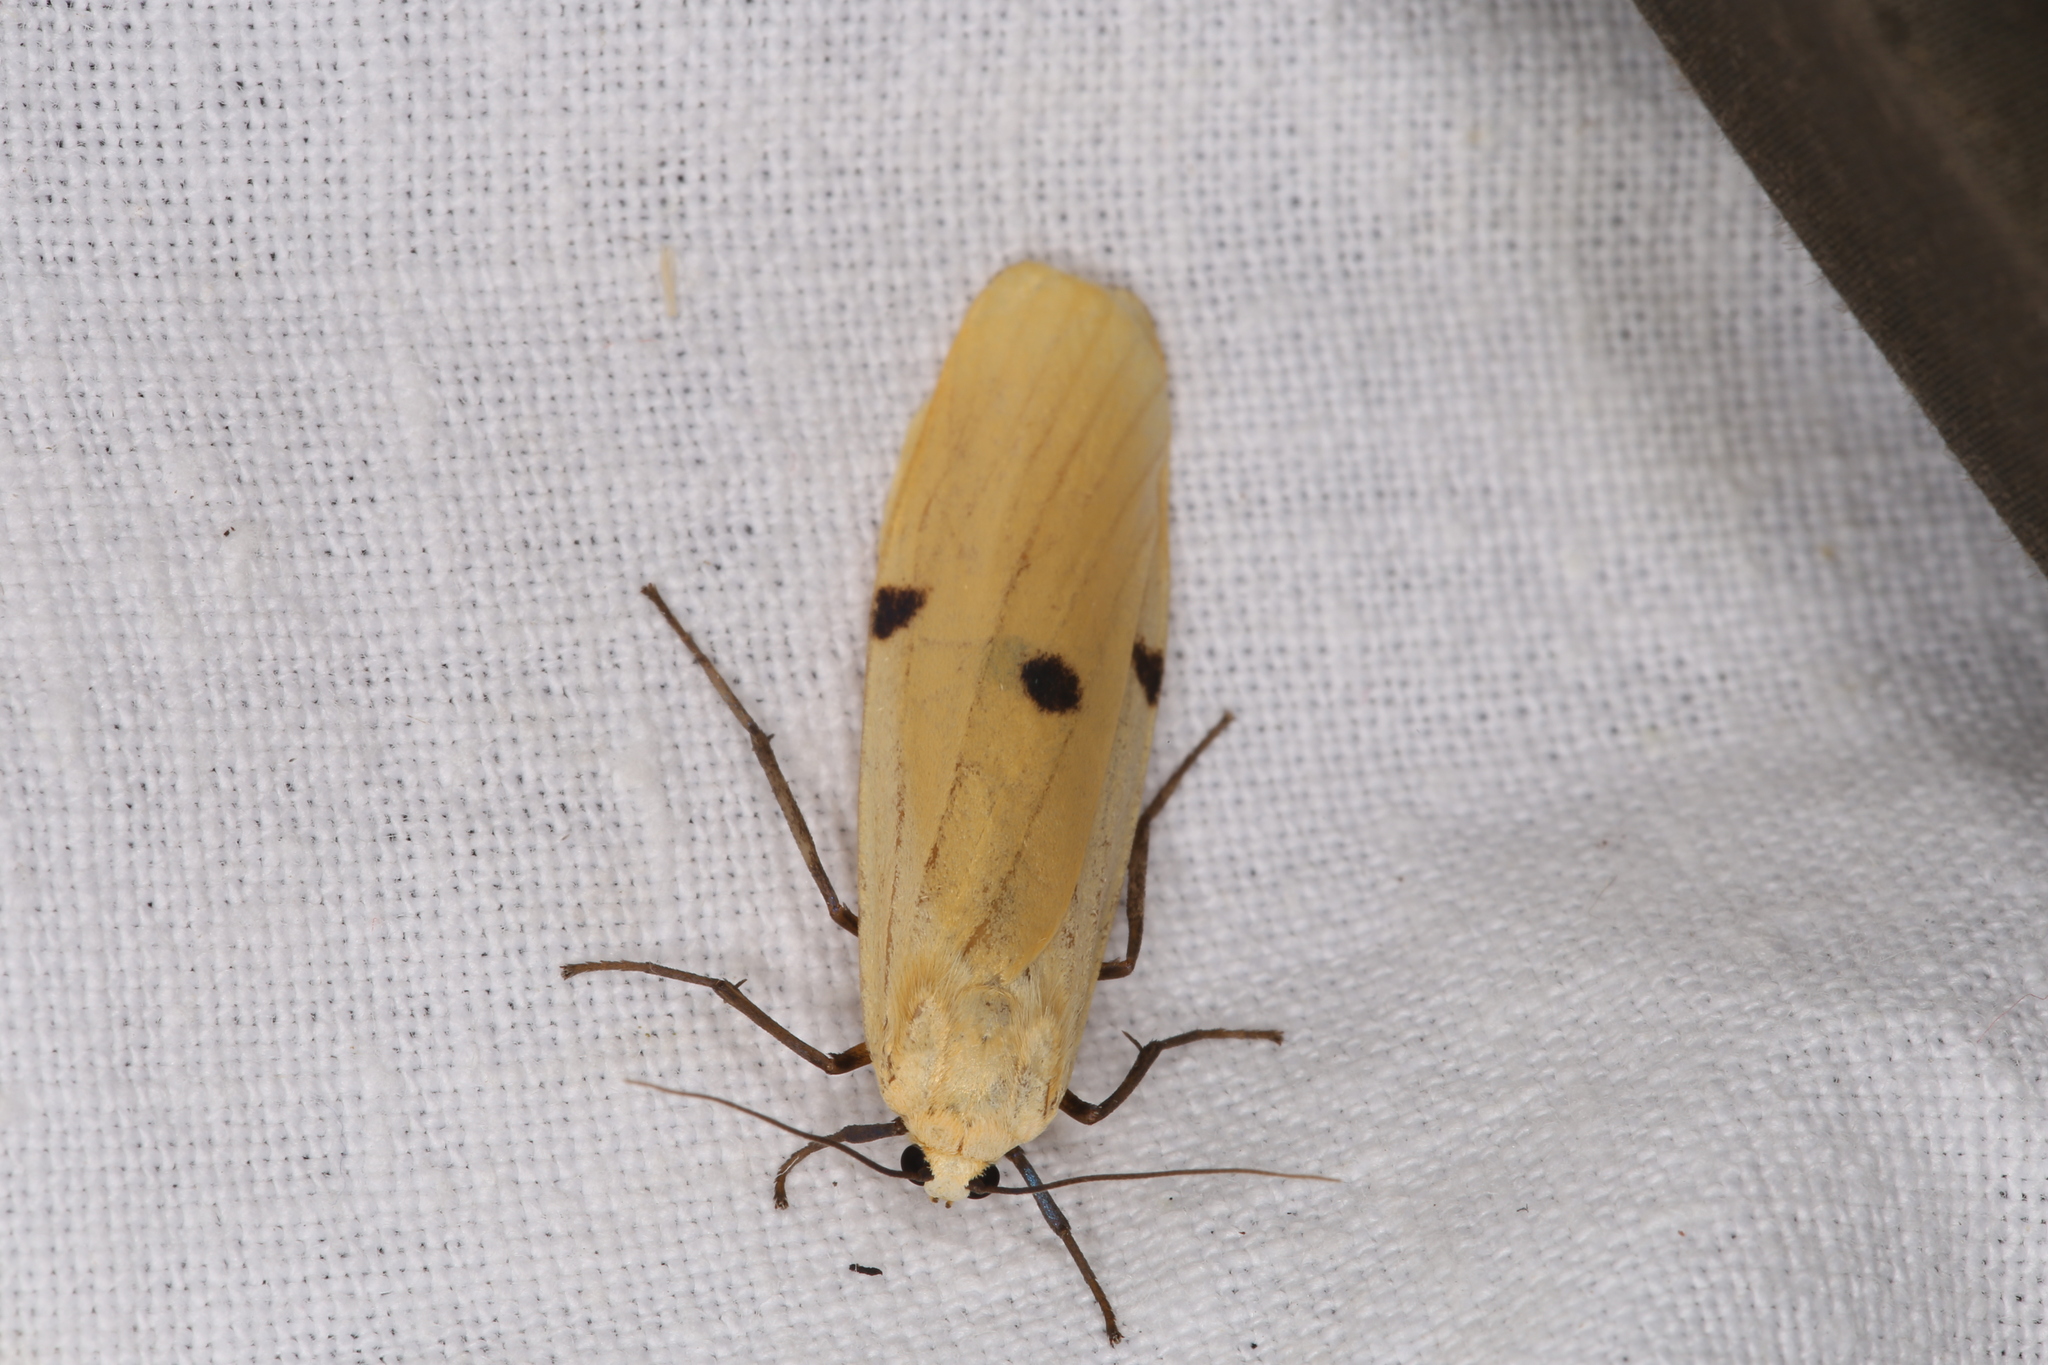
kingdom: Animalia
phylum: Arthropoda
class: Insecta
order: Lepidoptera
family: Erebidae
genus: Lithosia
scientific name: Lithosia quadra
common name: Four-spotted footman
